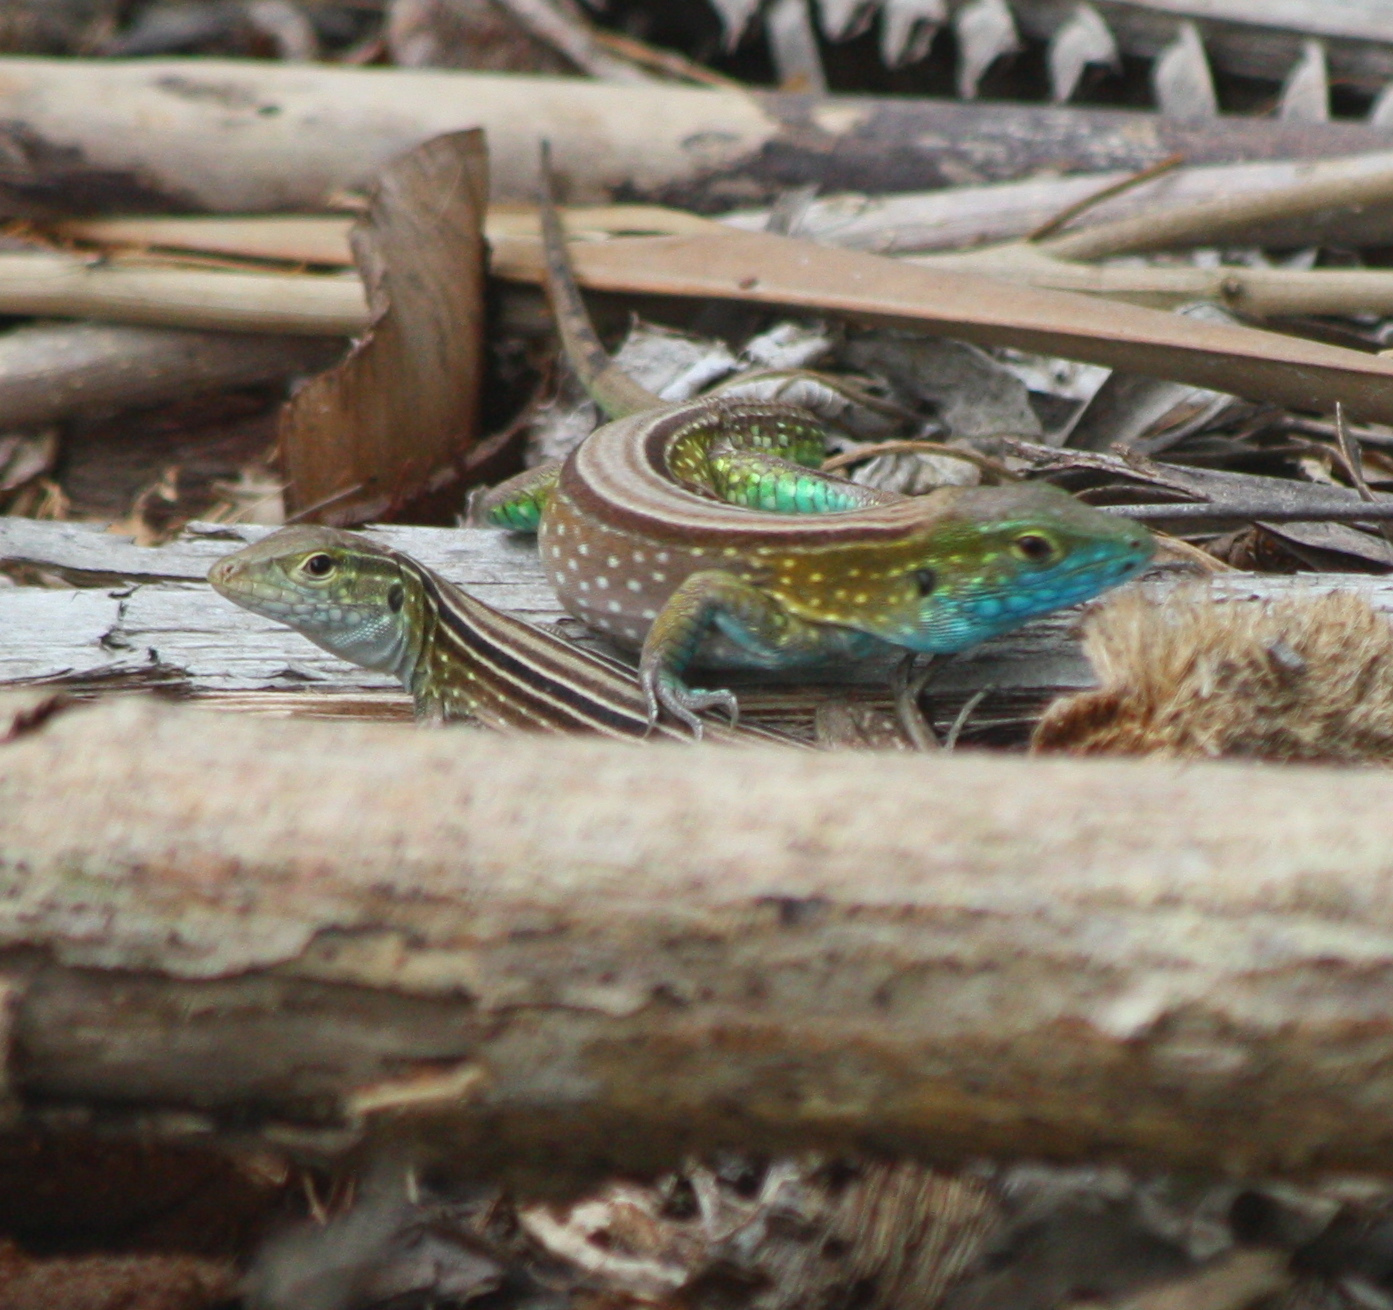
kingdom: Animalia
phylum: Chordata
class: Squamata
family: Teiidae
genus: Cnemidophorus
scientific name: Cnemidophorus gaigei
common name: Gaige’s rainbow lizard
